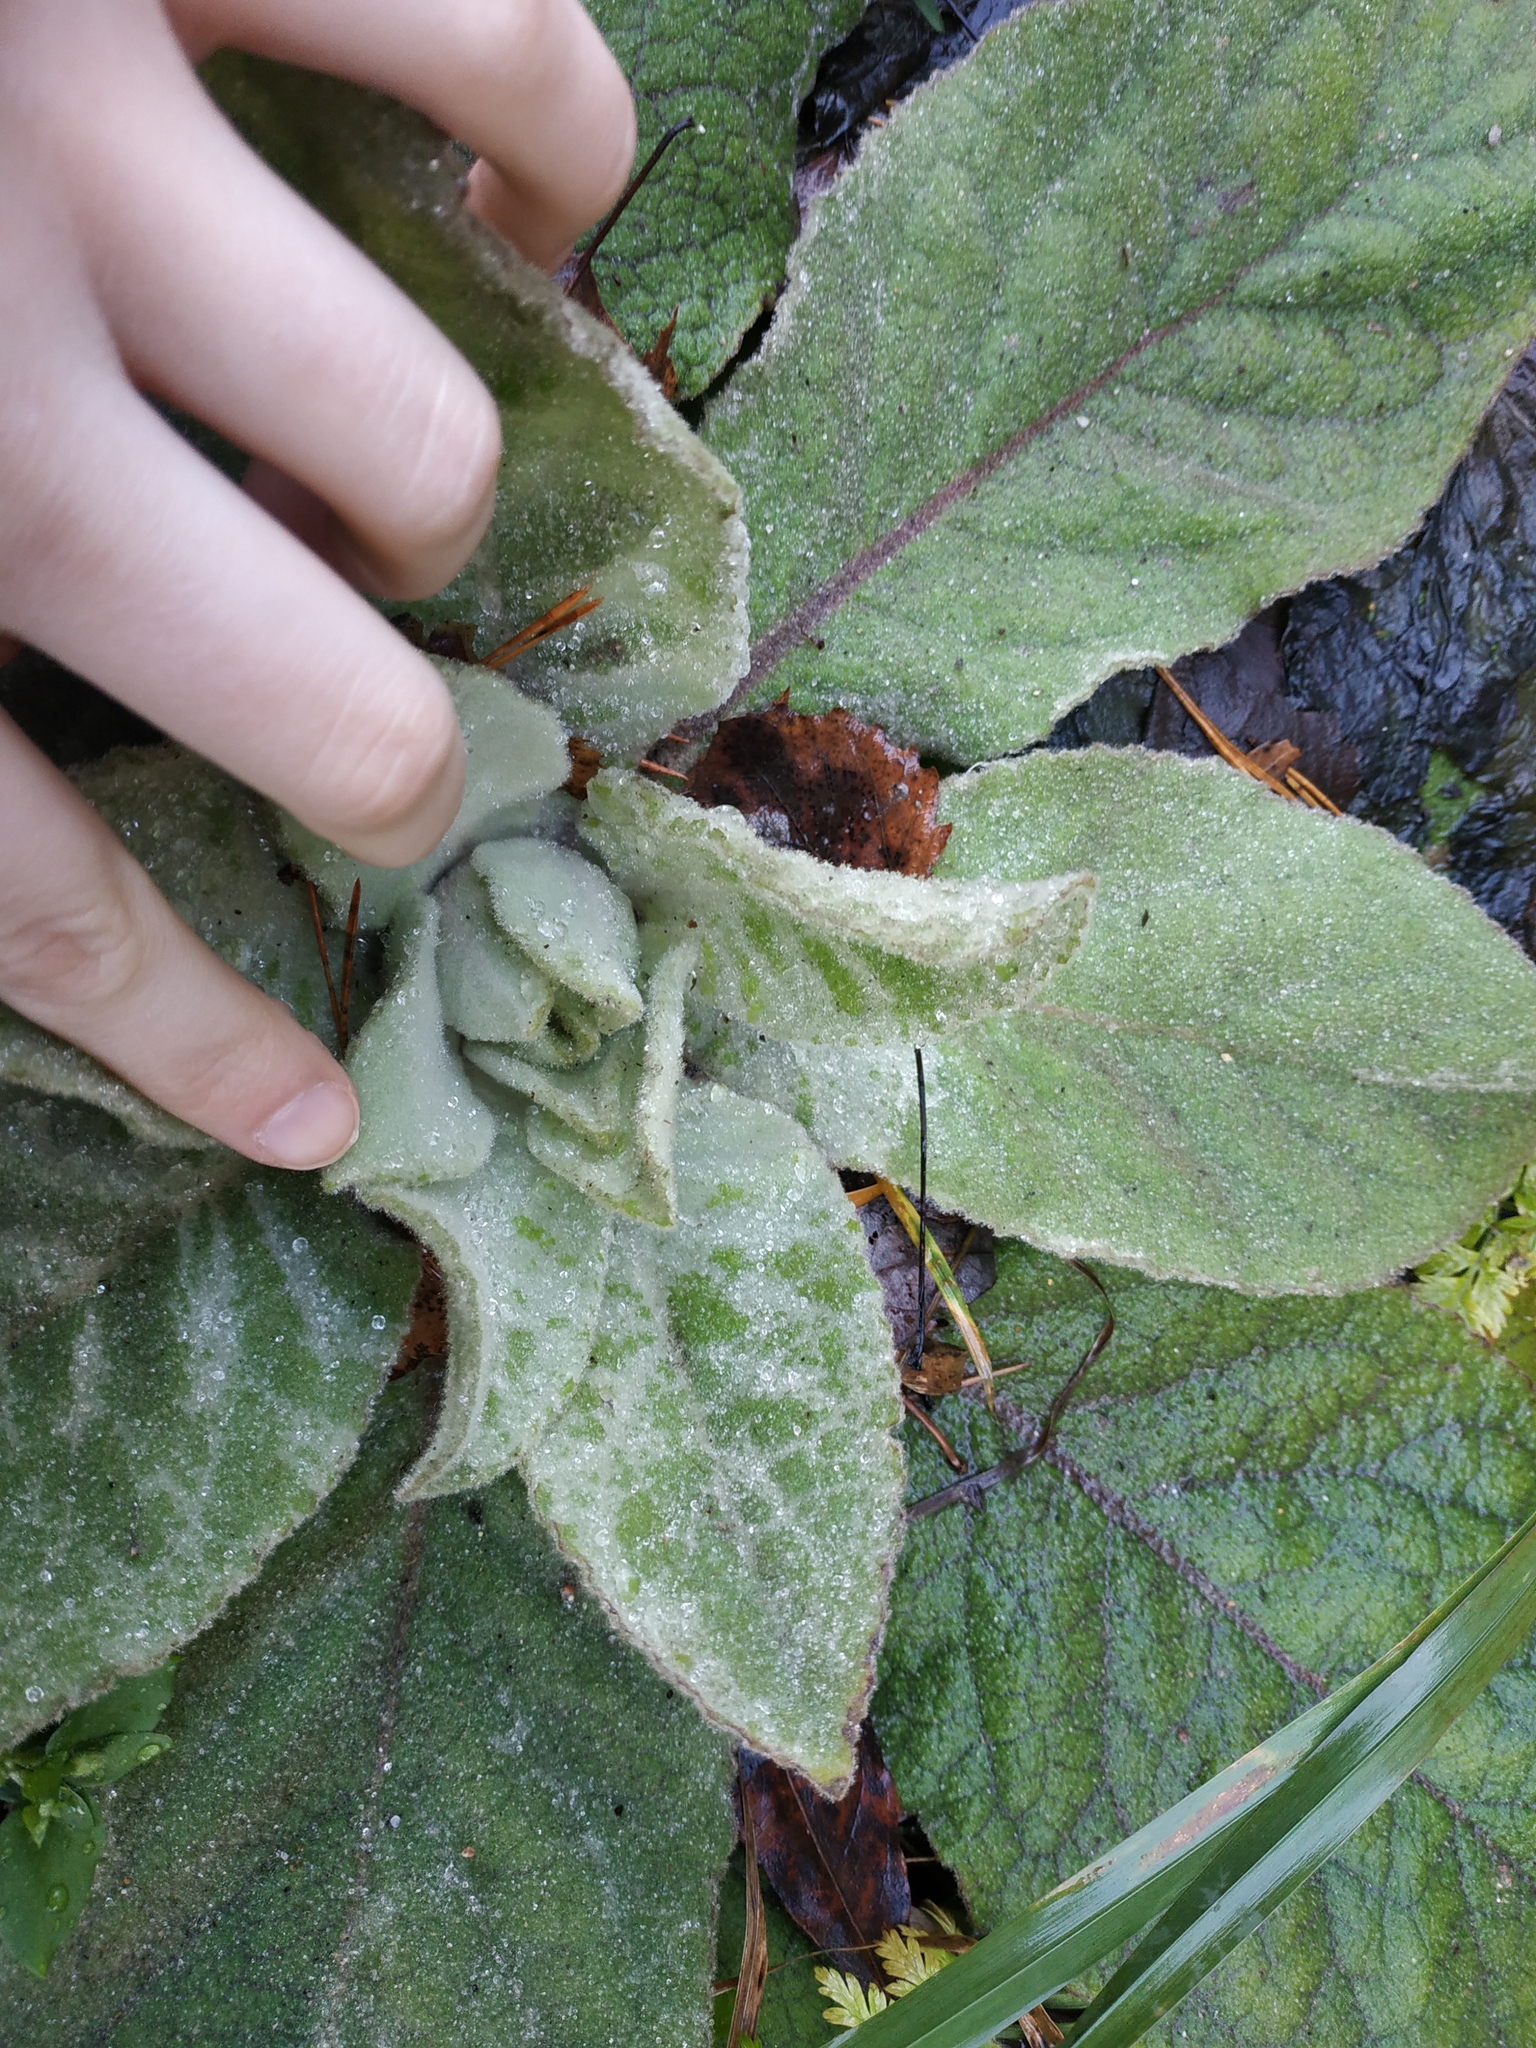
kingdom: Plantae
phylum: Tracheophyta
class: Magnoliopsida
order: Lamiales
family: Scrophulariaceae
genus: Verbascum
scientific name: Verbascum thapsus
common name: Common mullein
